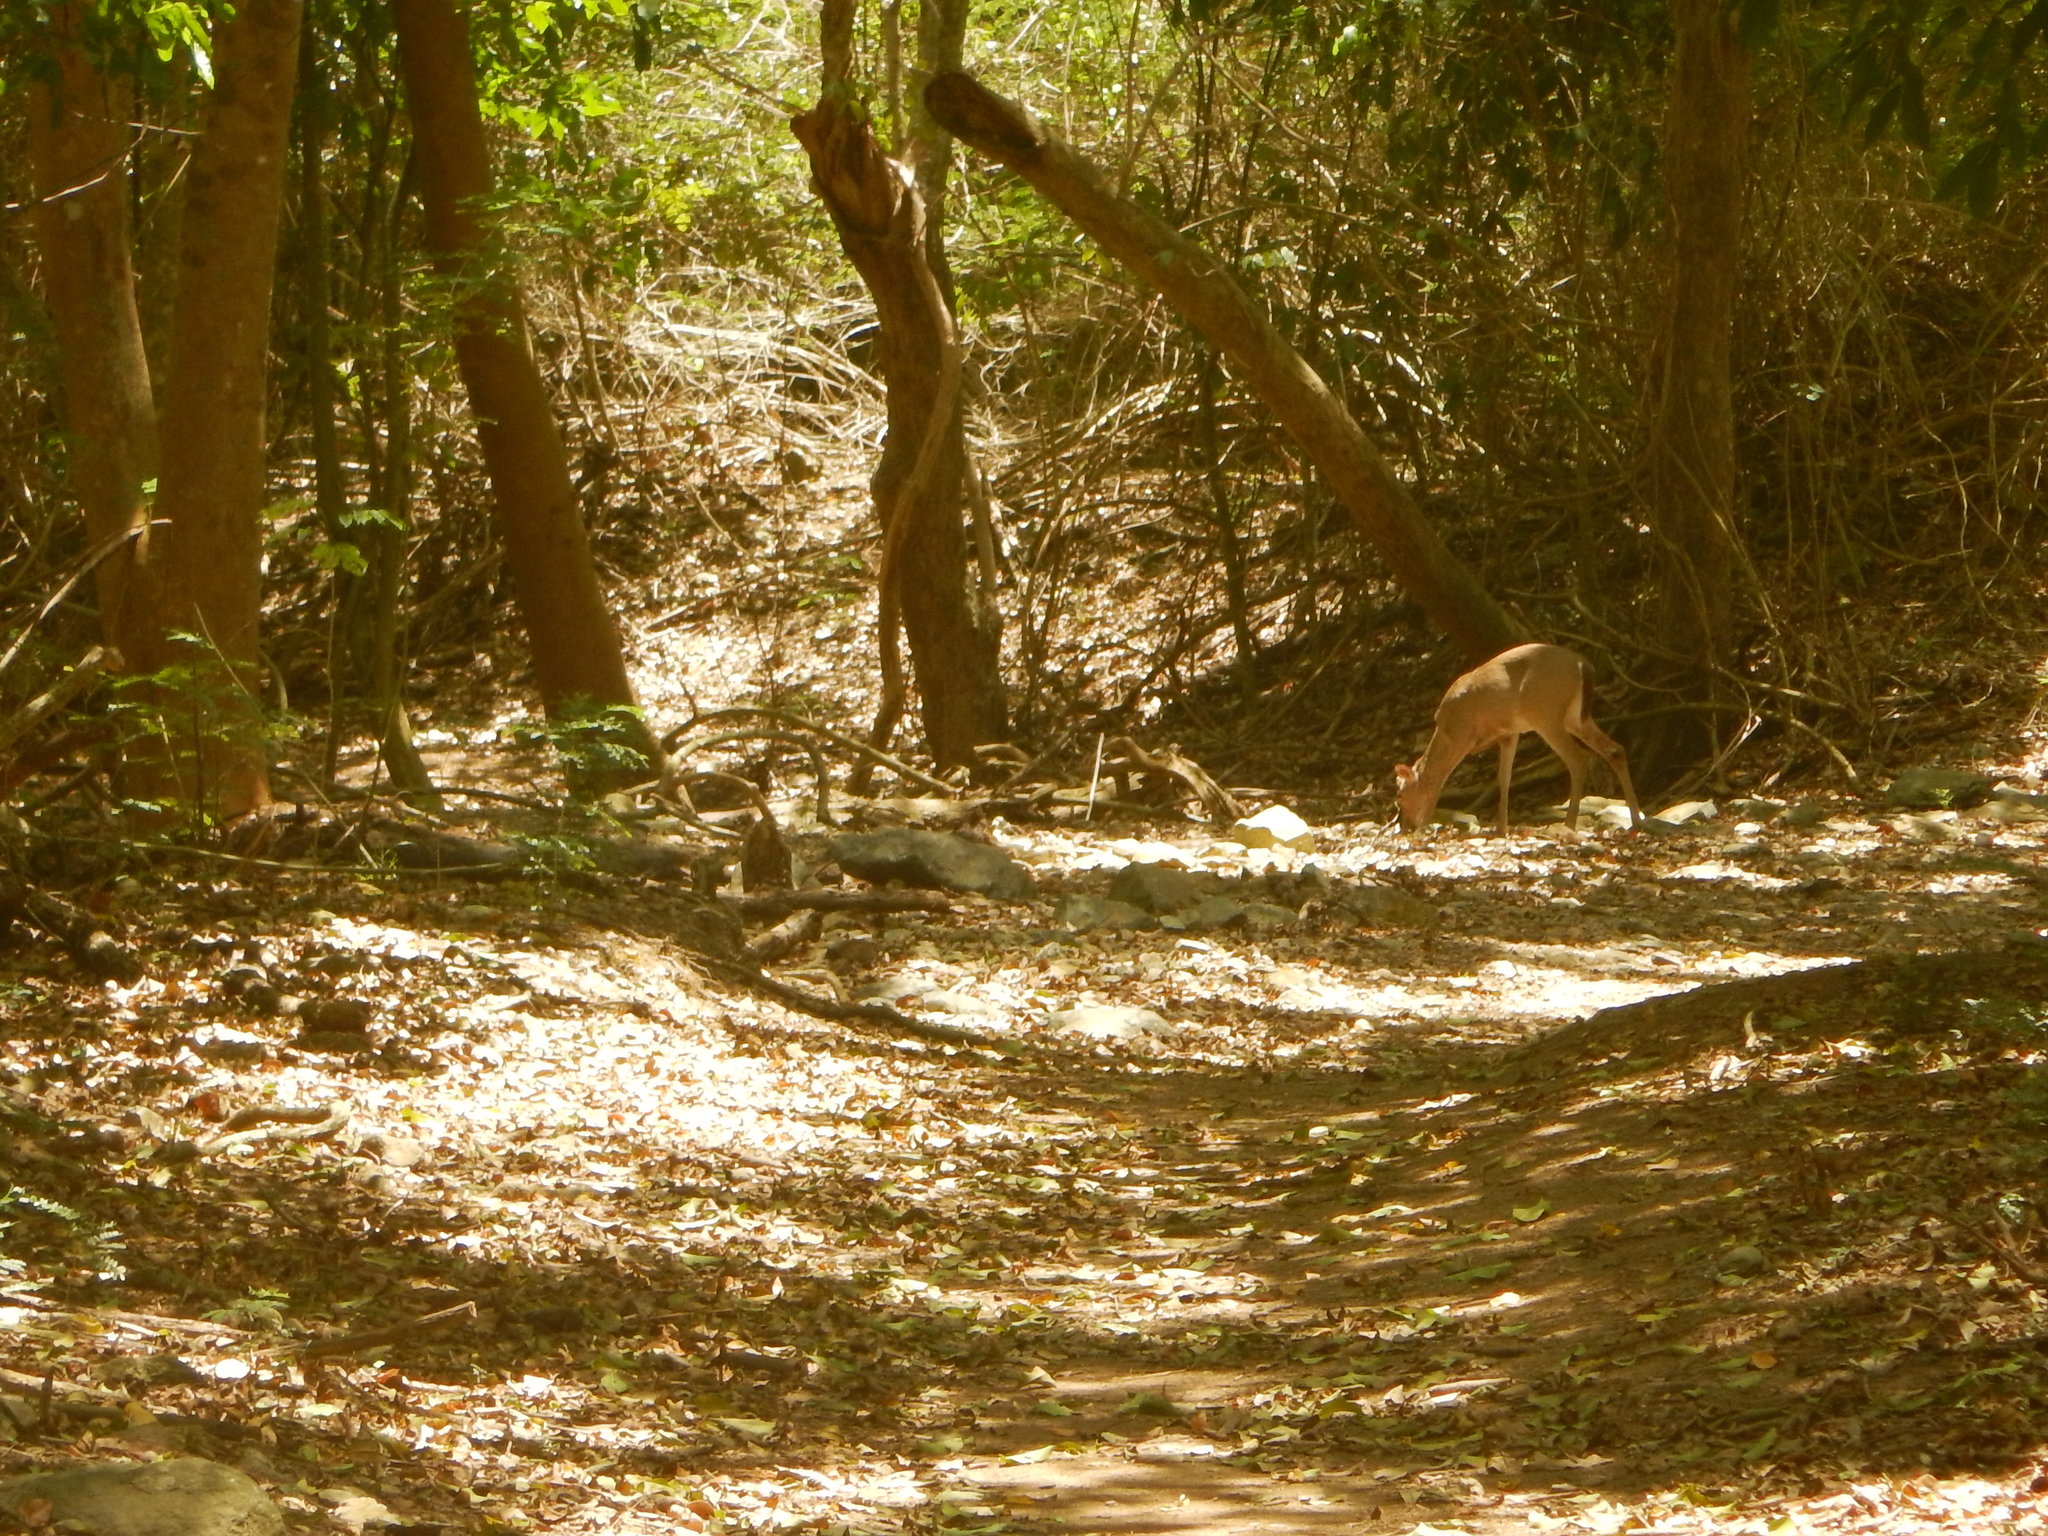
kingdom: Animalia
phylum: Chordata
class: Mammalia
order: Artiodactyla
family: Cervidae
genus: Odocoileus
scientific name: Odocoileus virginianus
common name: White-tailed deer
